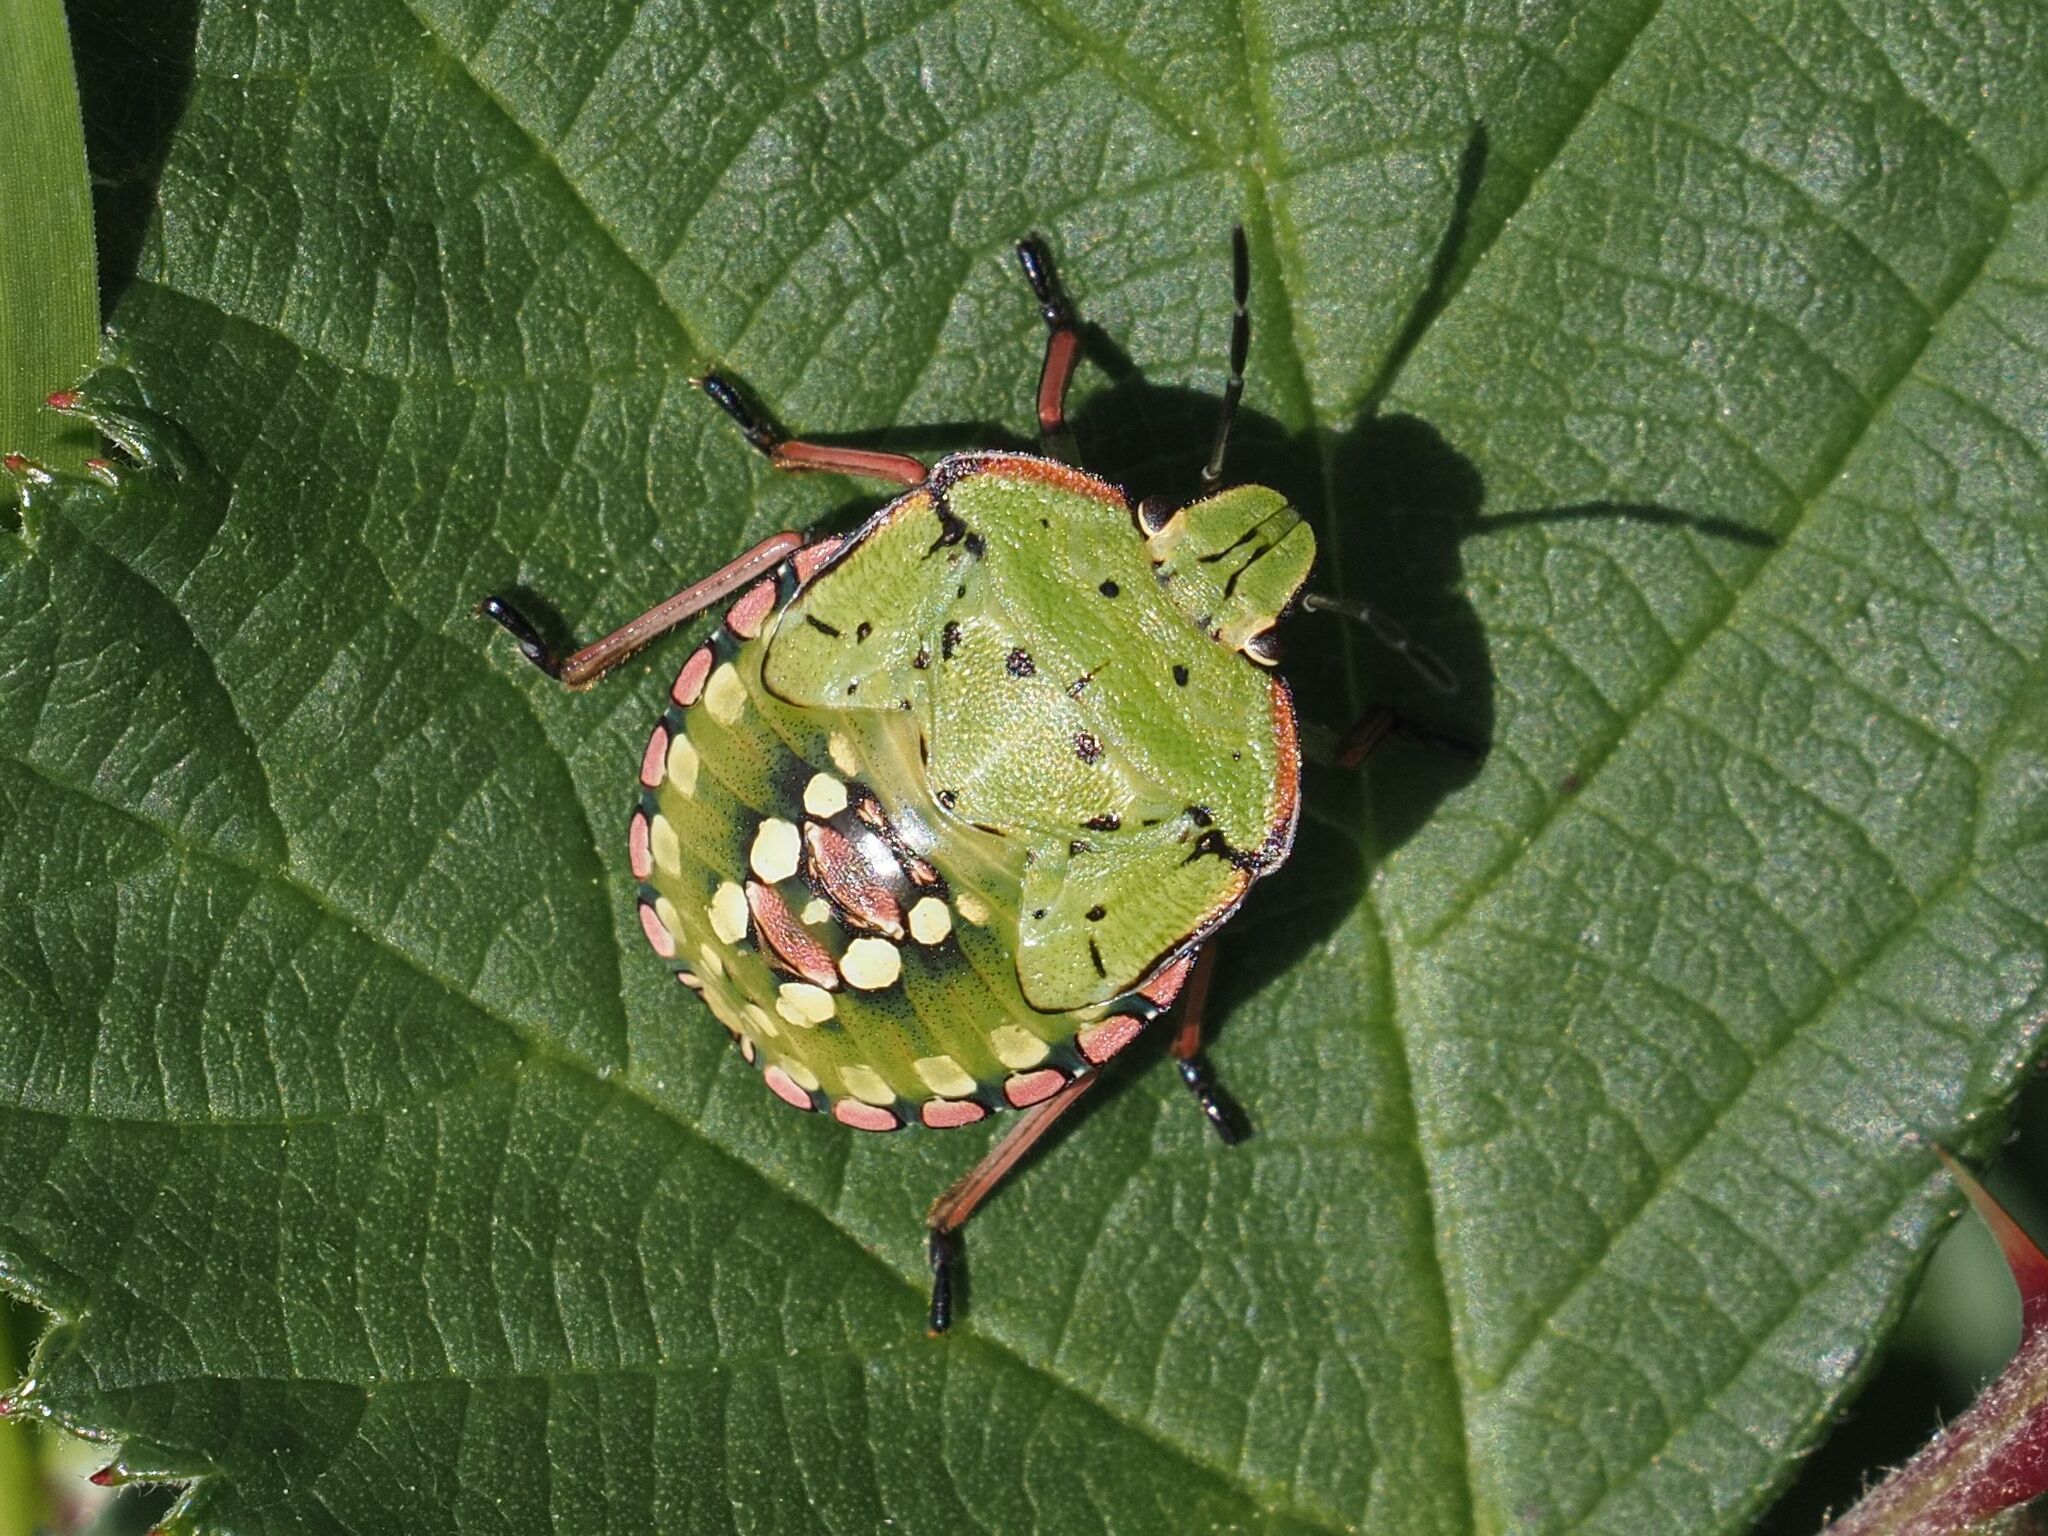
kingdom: Animalia
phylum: Arthropoda
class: Insecta
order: Hemiptera
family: Pentatomidae
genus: Nezara
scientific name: Nezara viridula
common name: Southern green stink bug
